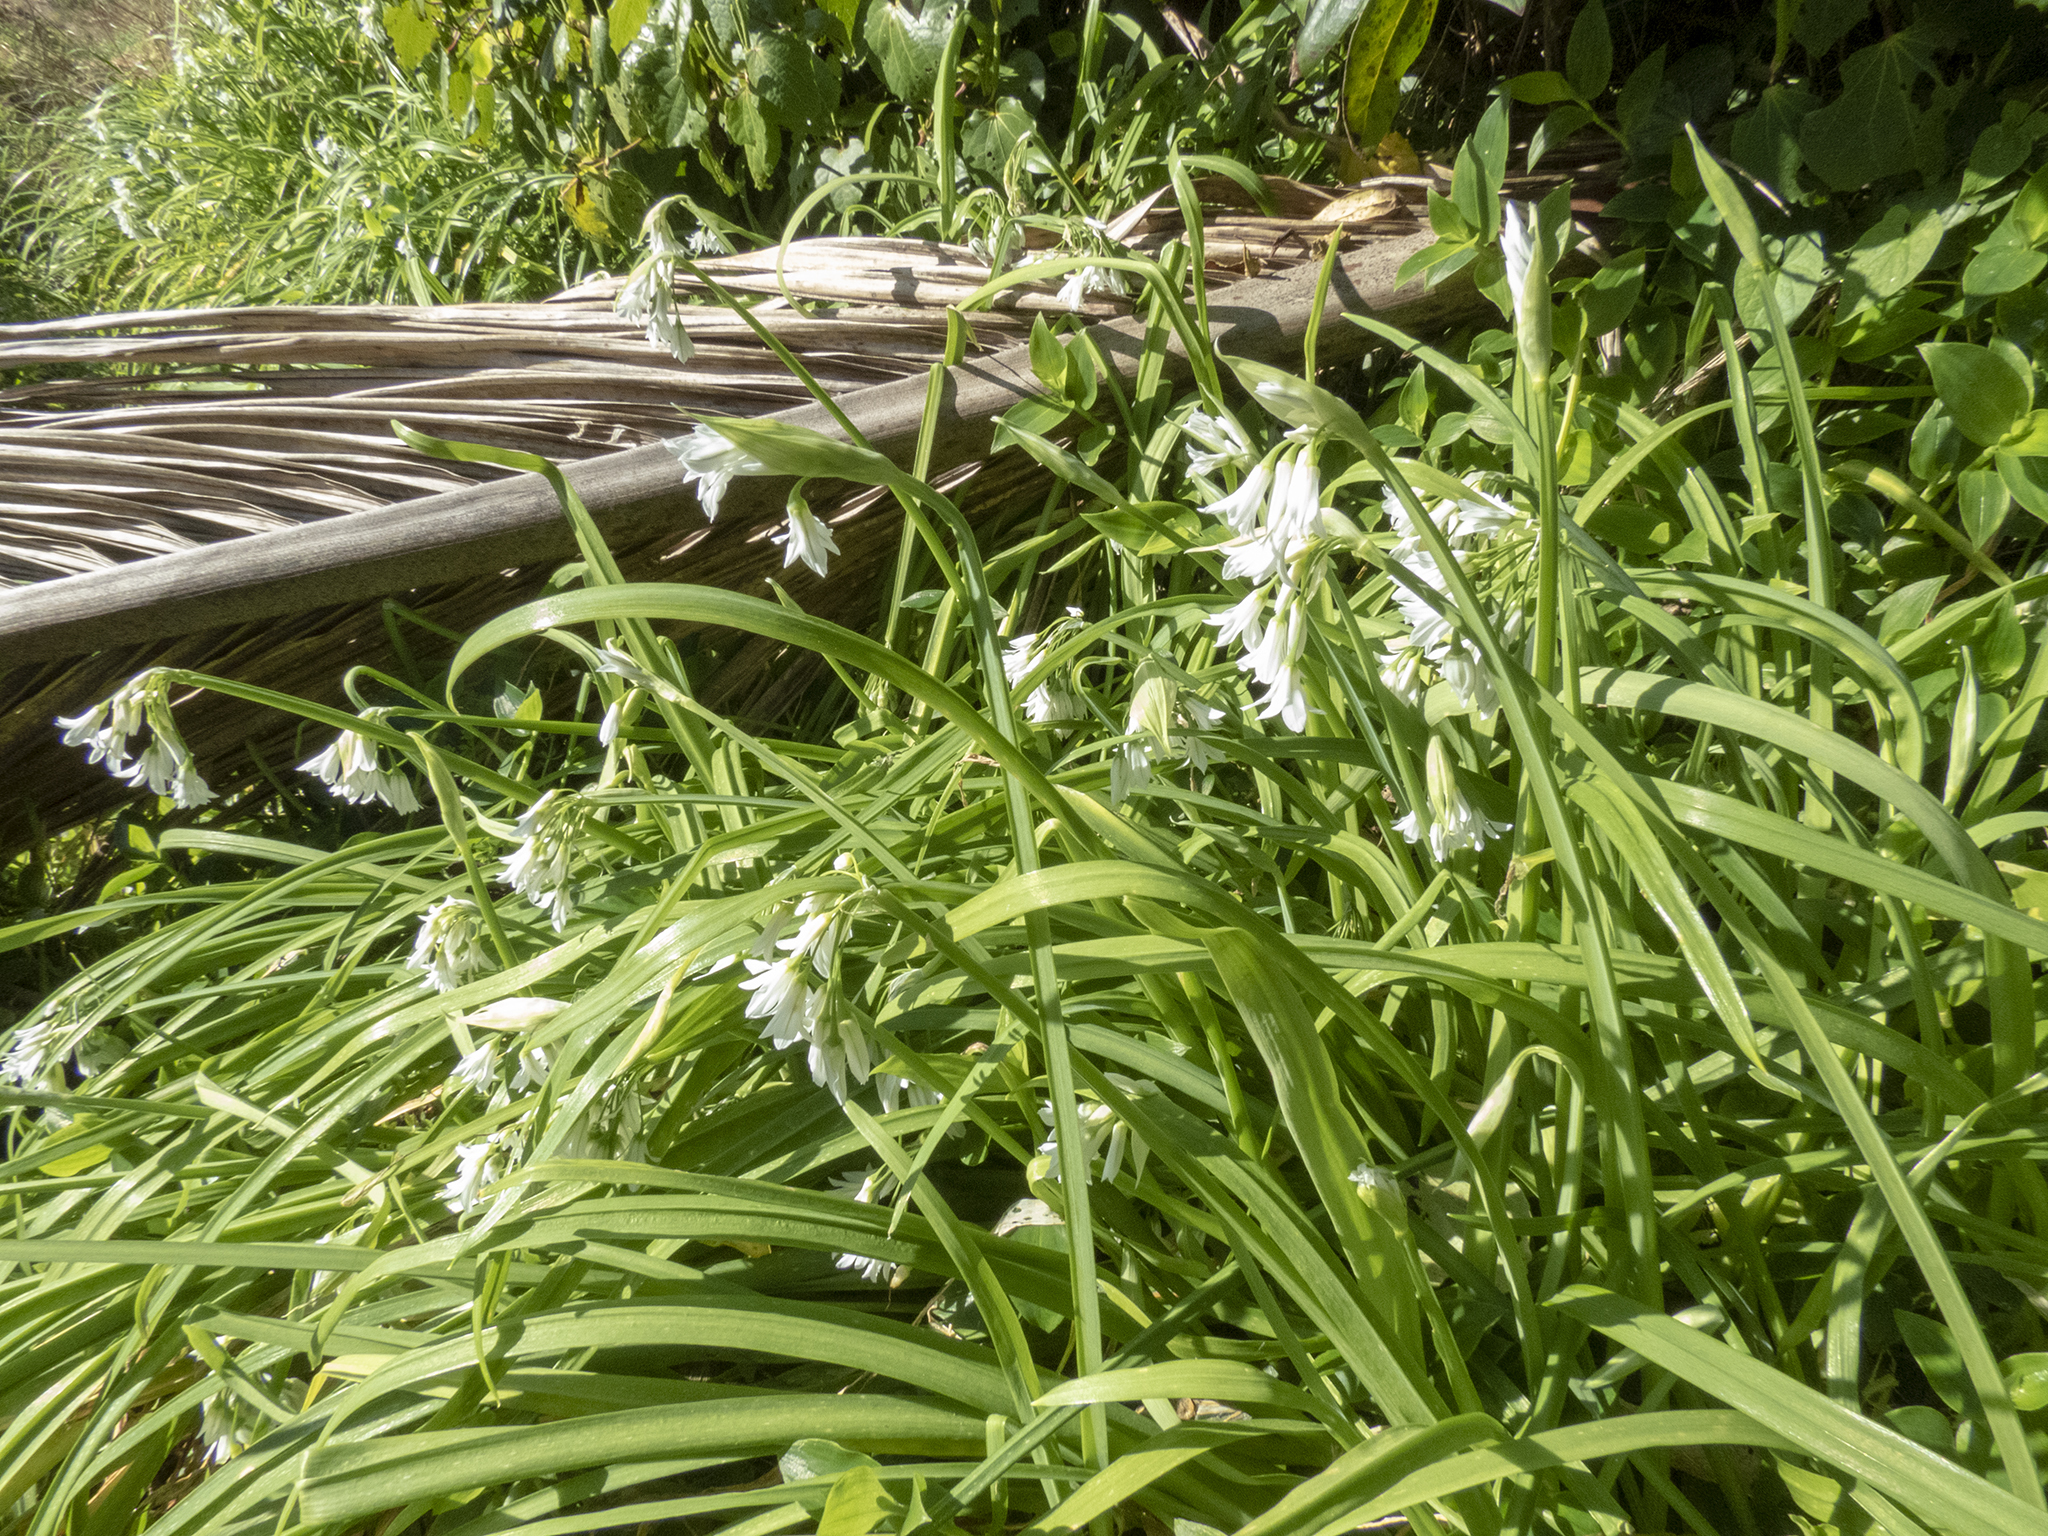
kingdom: Plantae
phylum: Tracheophyta
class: Liliopsida
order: Asparagales
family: Amaryllidaceae
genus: Allium
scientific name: Allium triquetrum
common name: Three-cornered garlic
